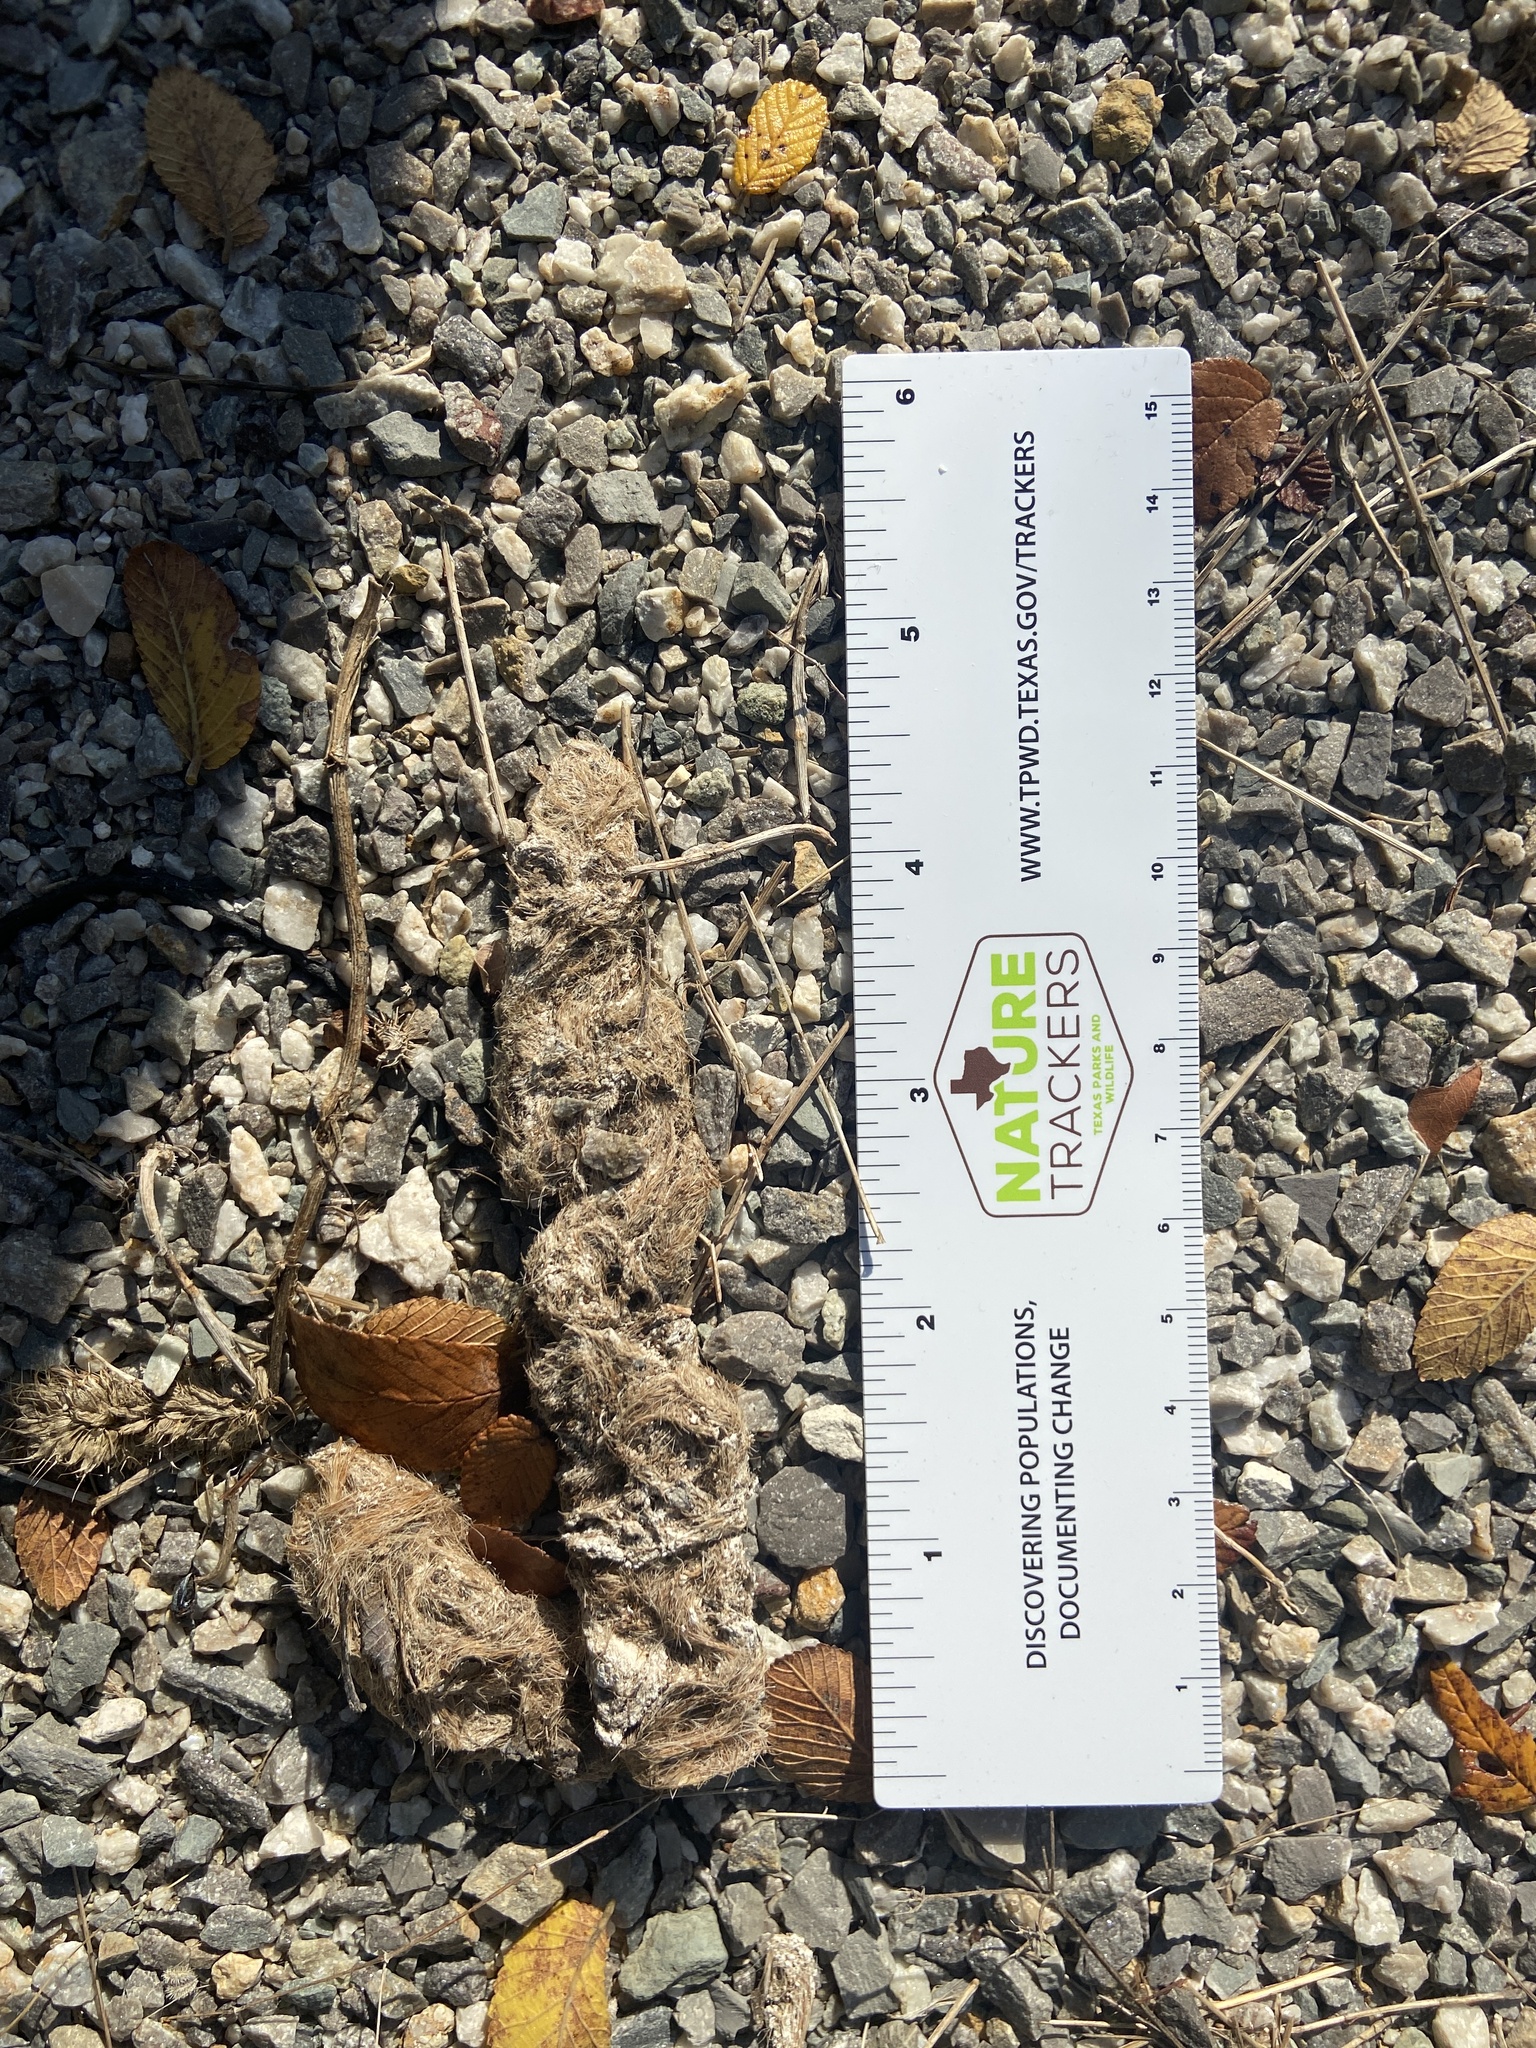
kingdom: Animalia
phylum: Chordata
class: Mammalia
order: Carnivora
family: Canidae
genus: Canis
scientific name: Canis latrans
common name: Coyote
